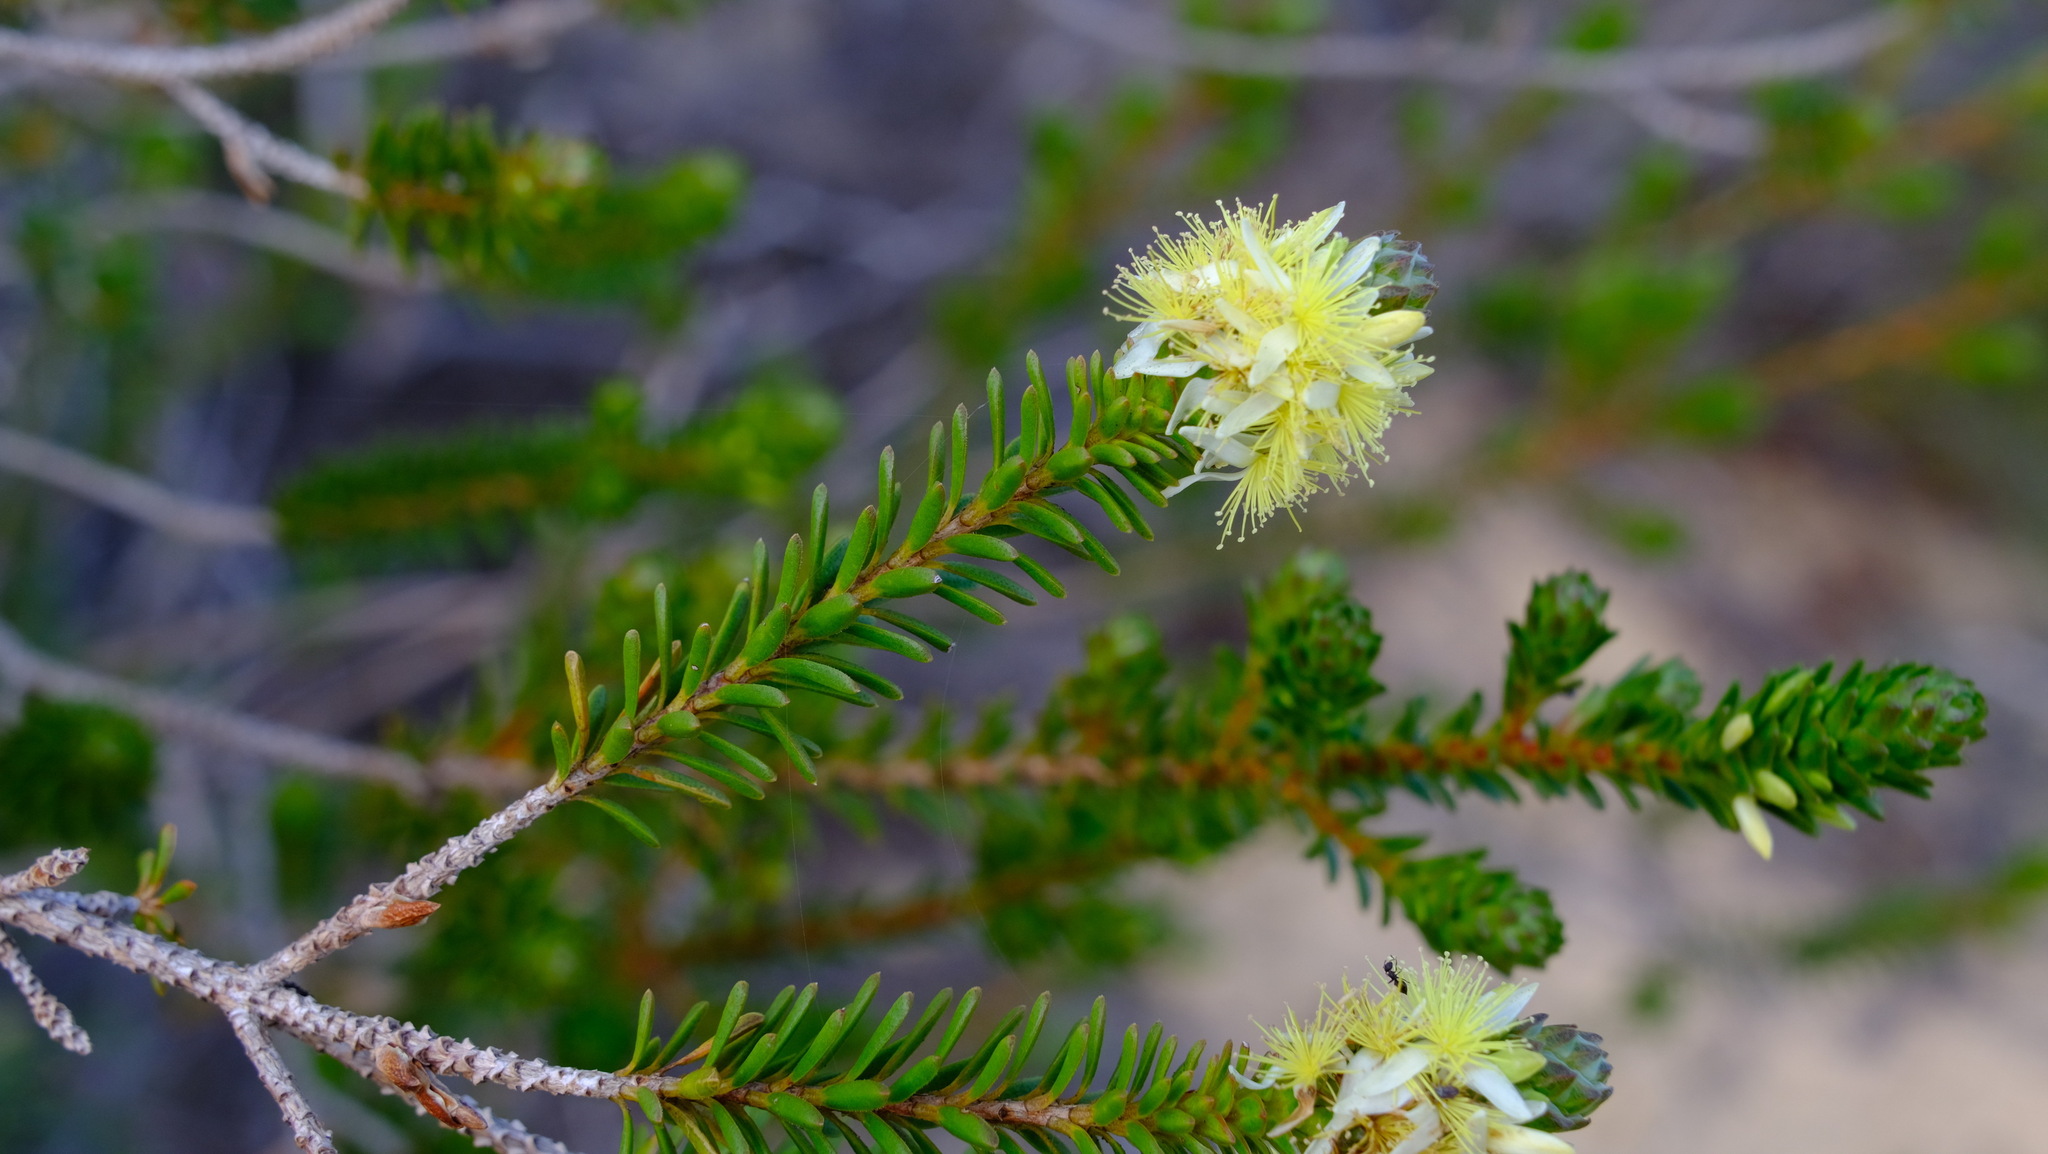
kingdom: Plantae
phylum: Tracheophyta
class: Magnoliopsida
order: Myrtales
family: Myrtaceae
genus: Calytrix
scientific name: Calytrix pimeleoides
